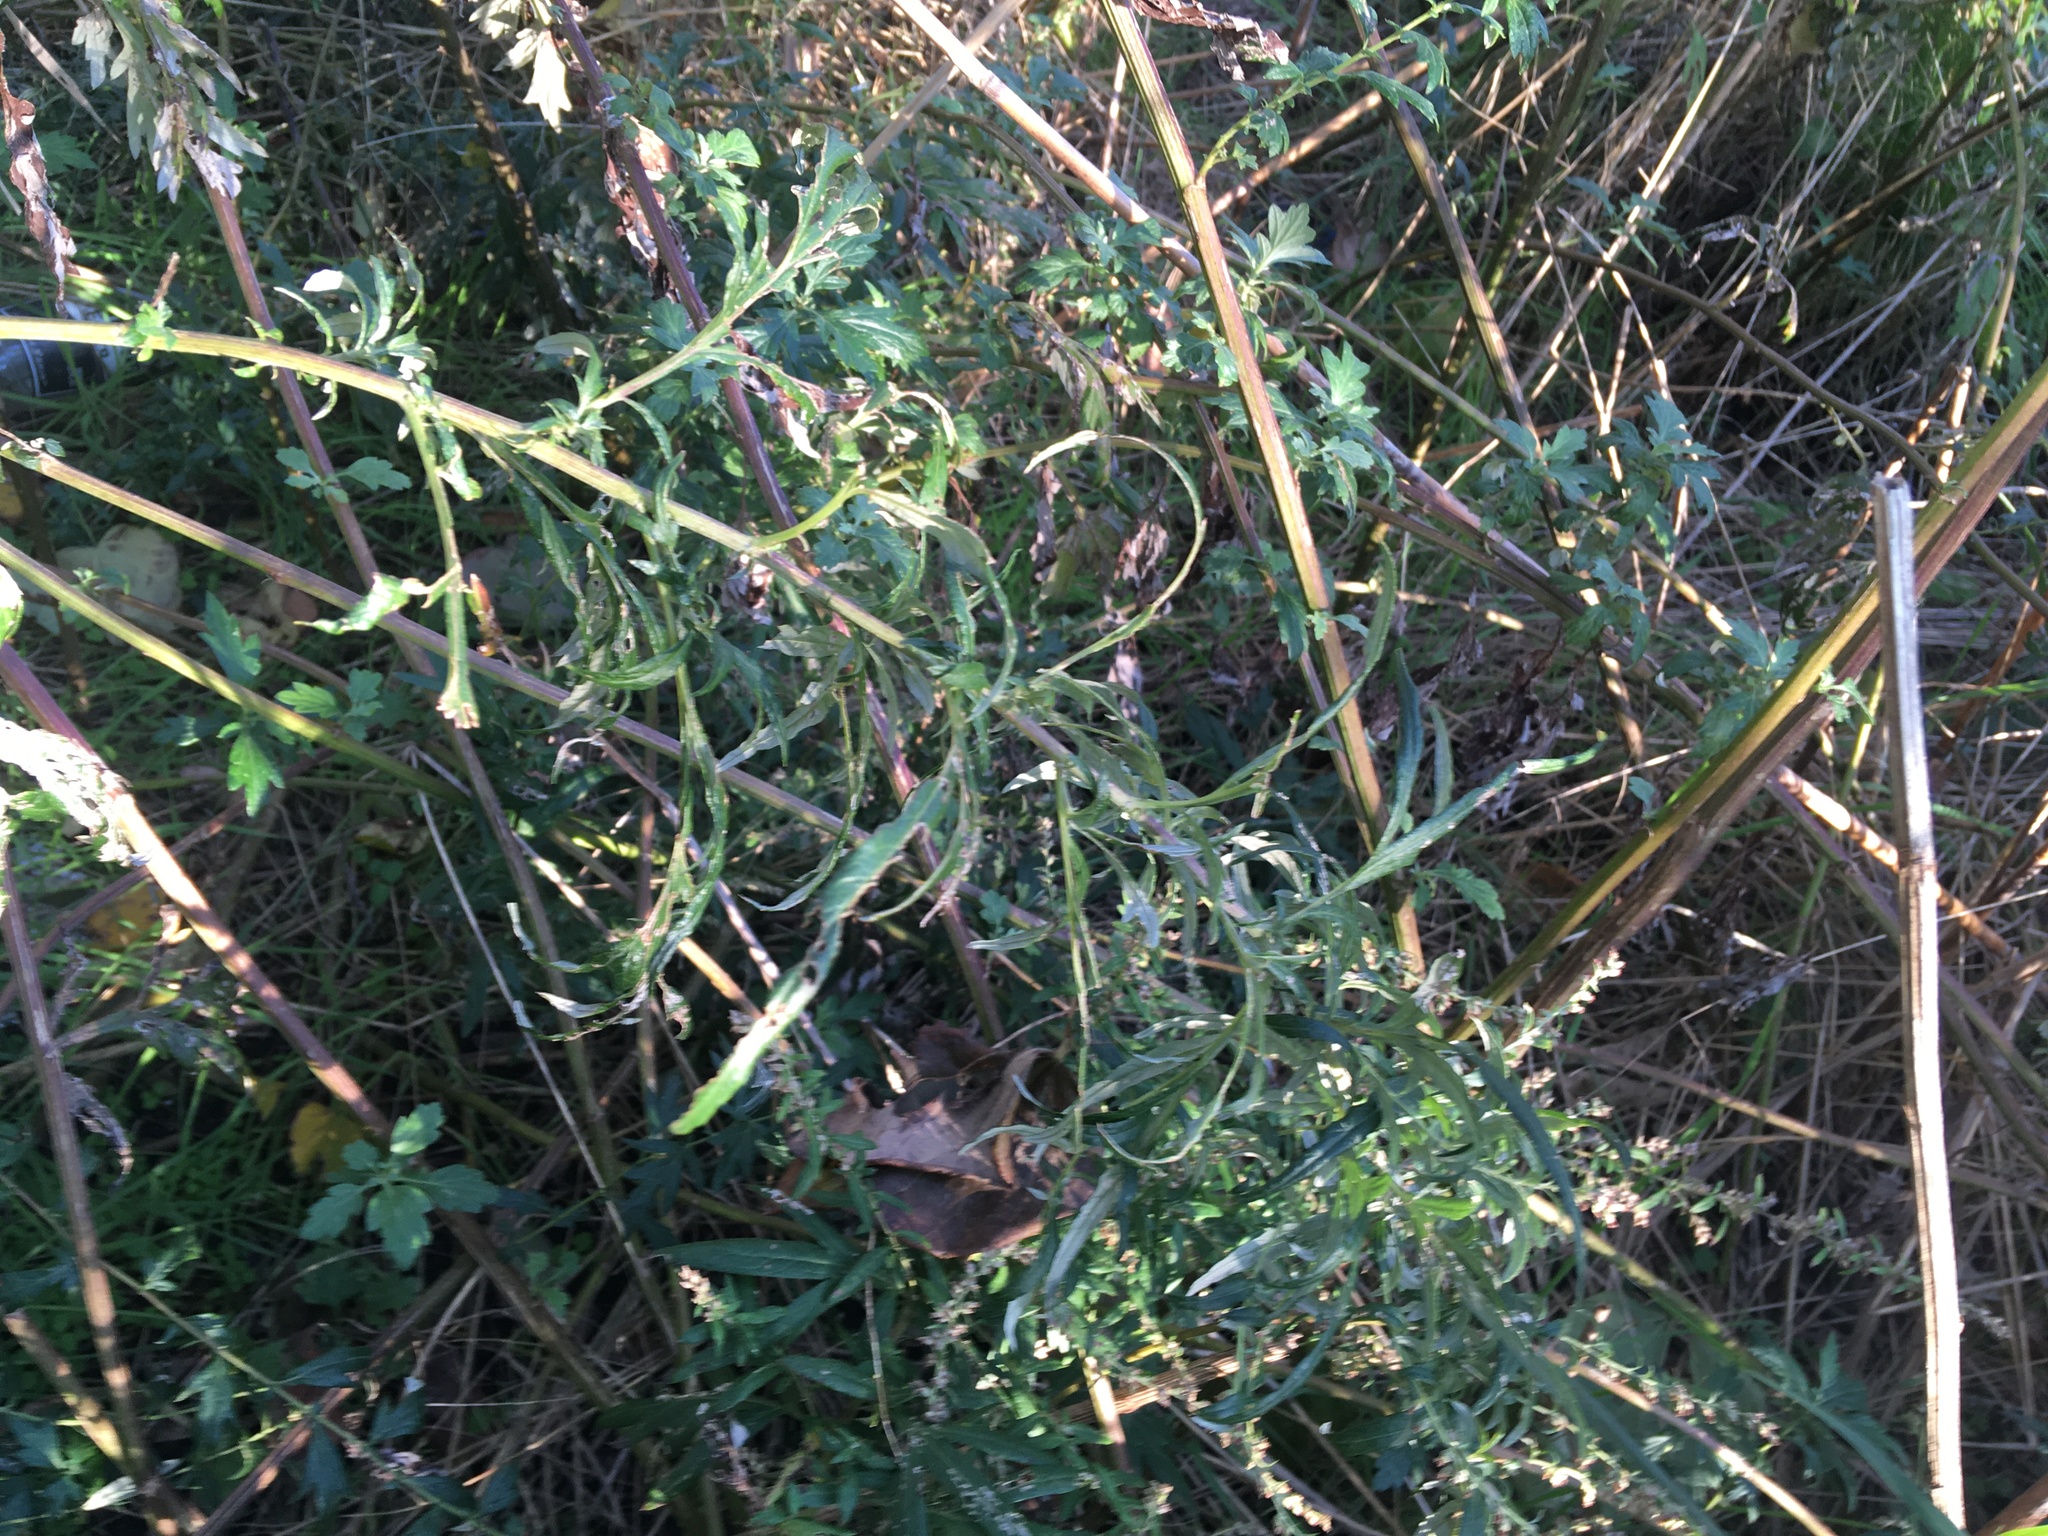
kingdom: Plantae
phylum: Tracheophyta
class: Magnoliopsida
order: Asterales
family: Asteraceae
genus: Artemisia
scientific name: Artemisia vulgaris
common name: Mugwort
